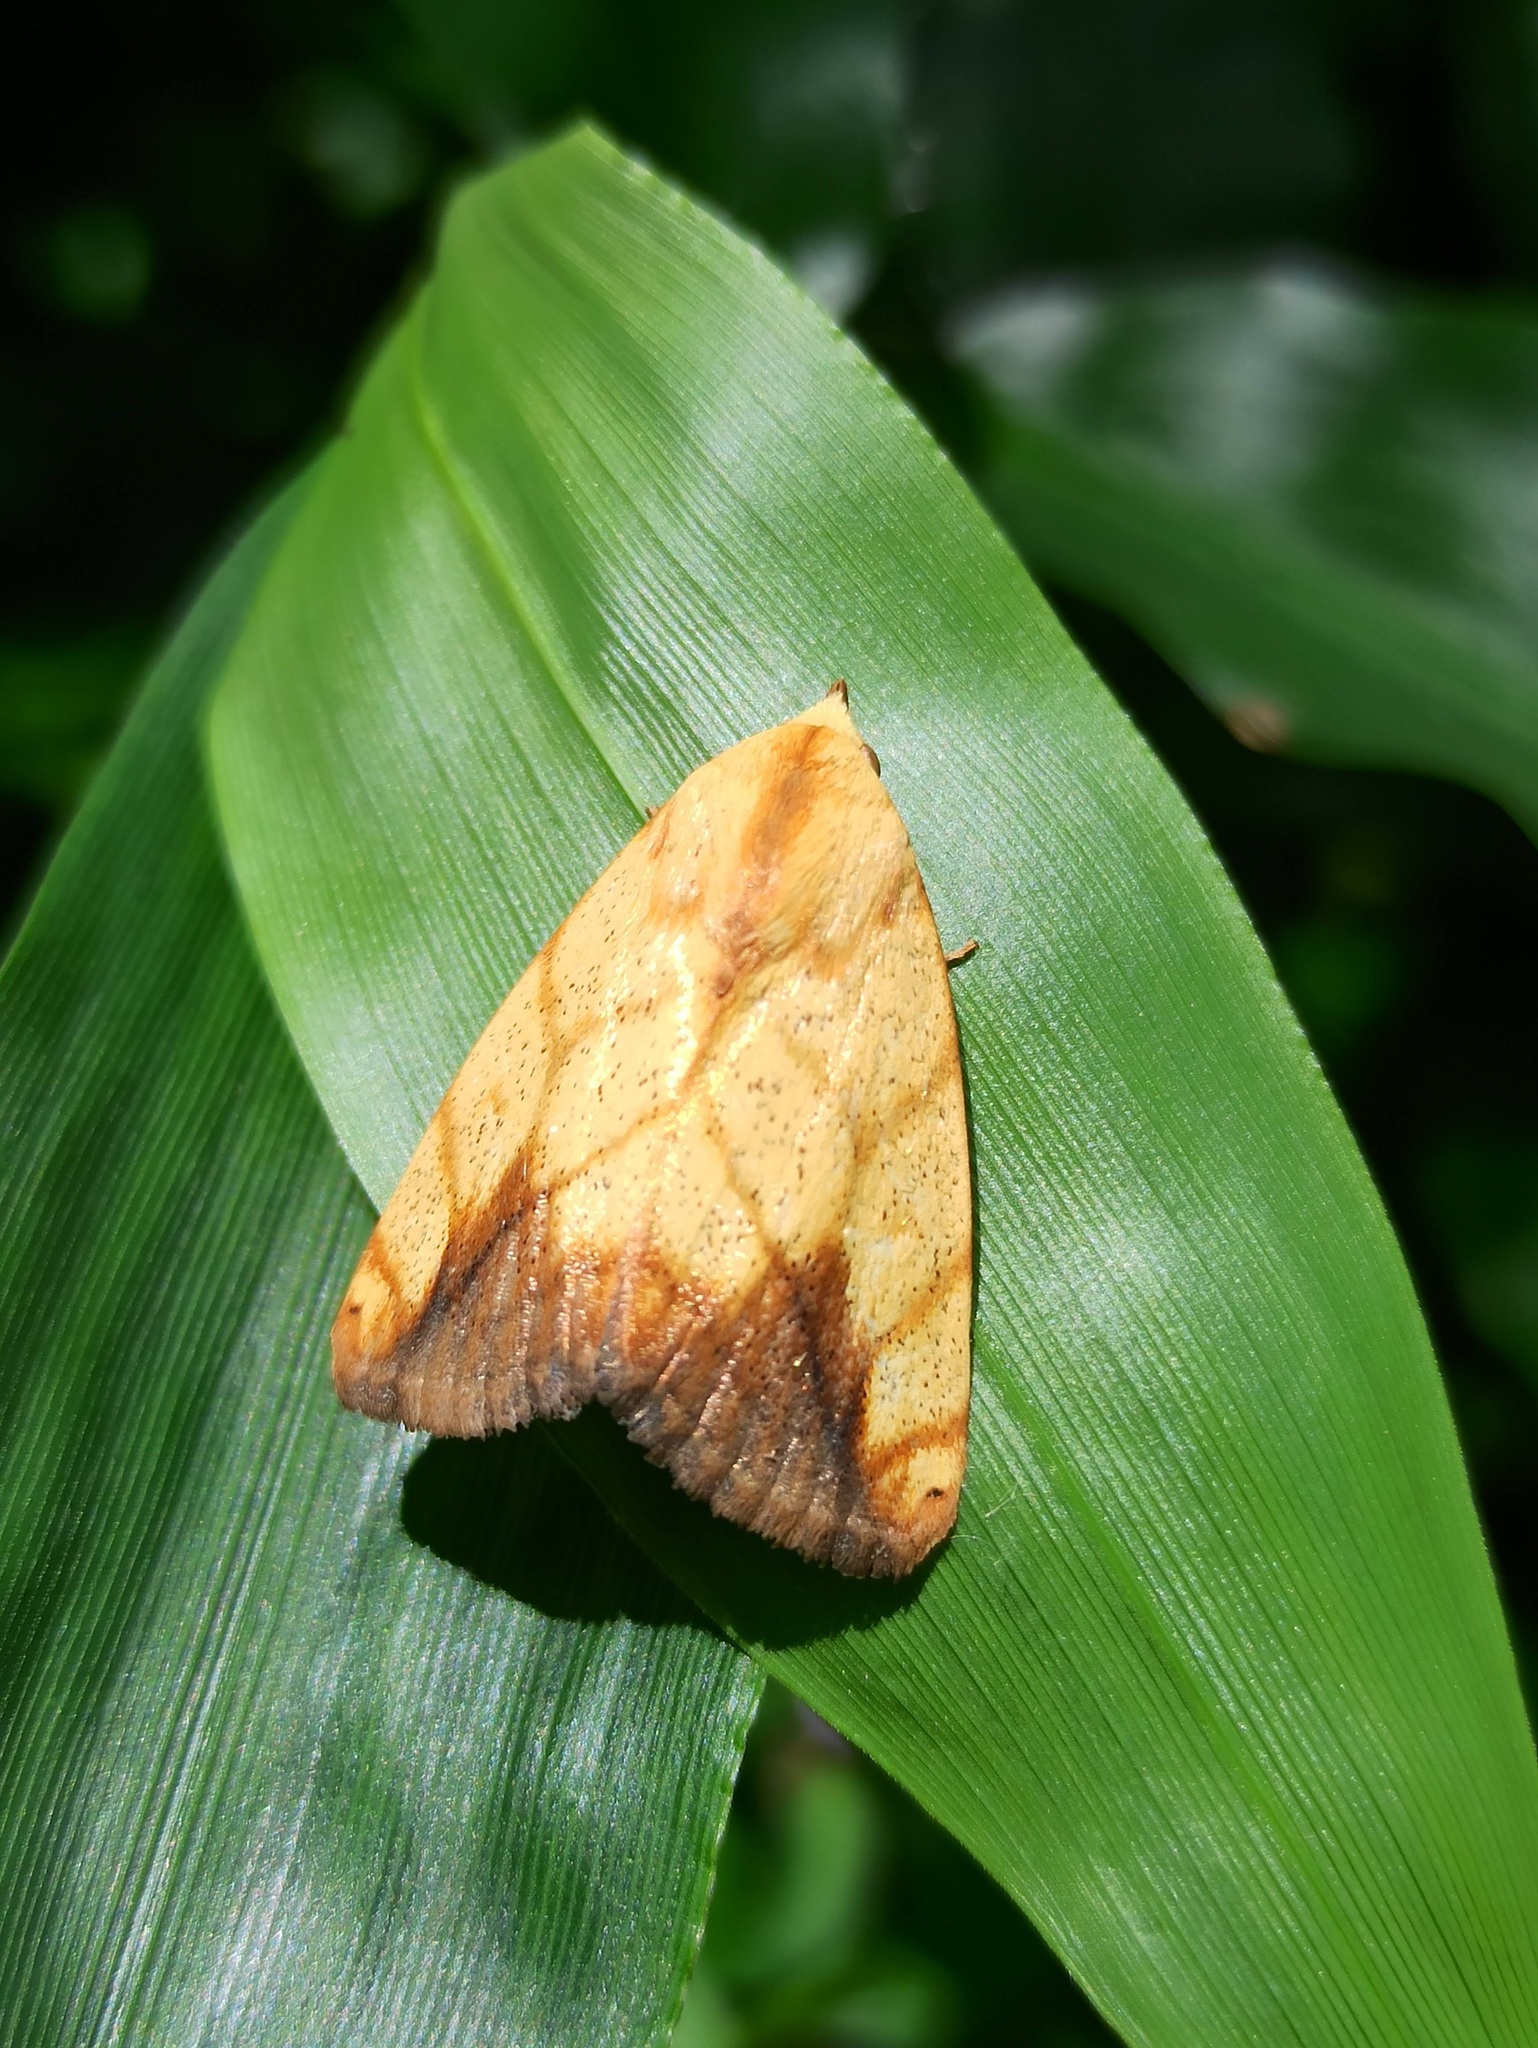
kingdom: Animalia
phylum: Arthropoda
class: Insecta
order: Lepidoptera
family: Nolidae
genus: Xanthodes
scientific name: Xanthodes transversa
